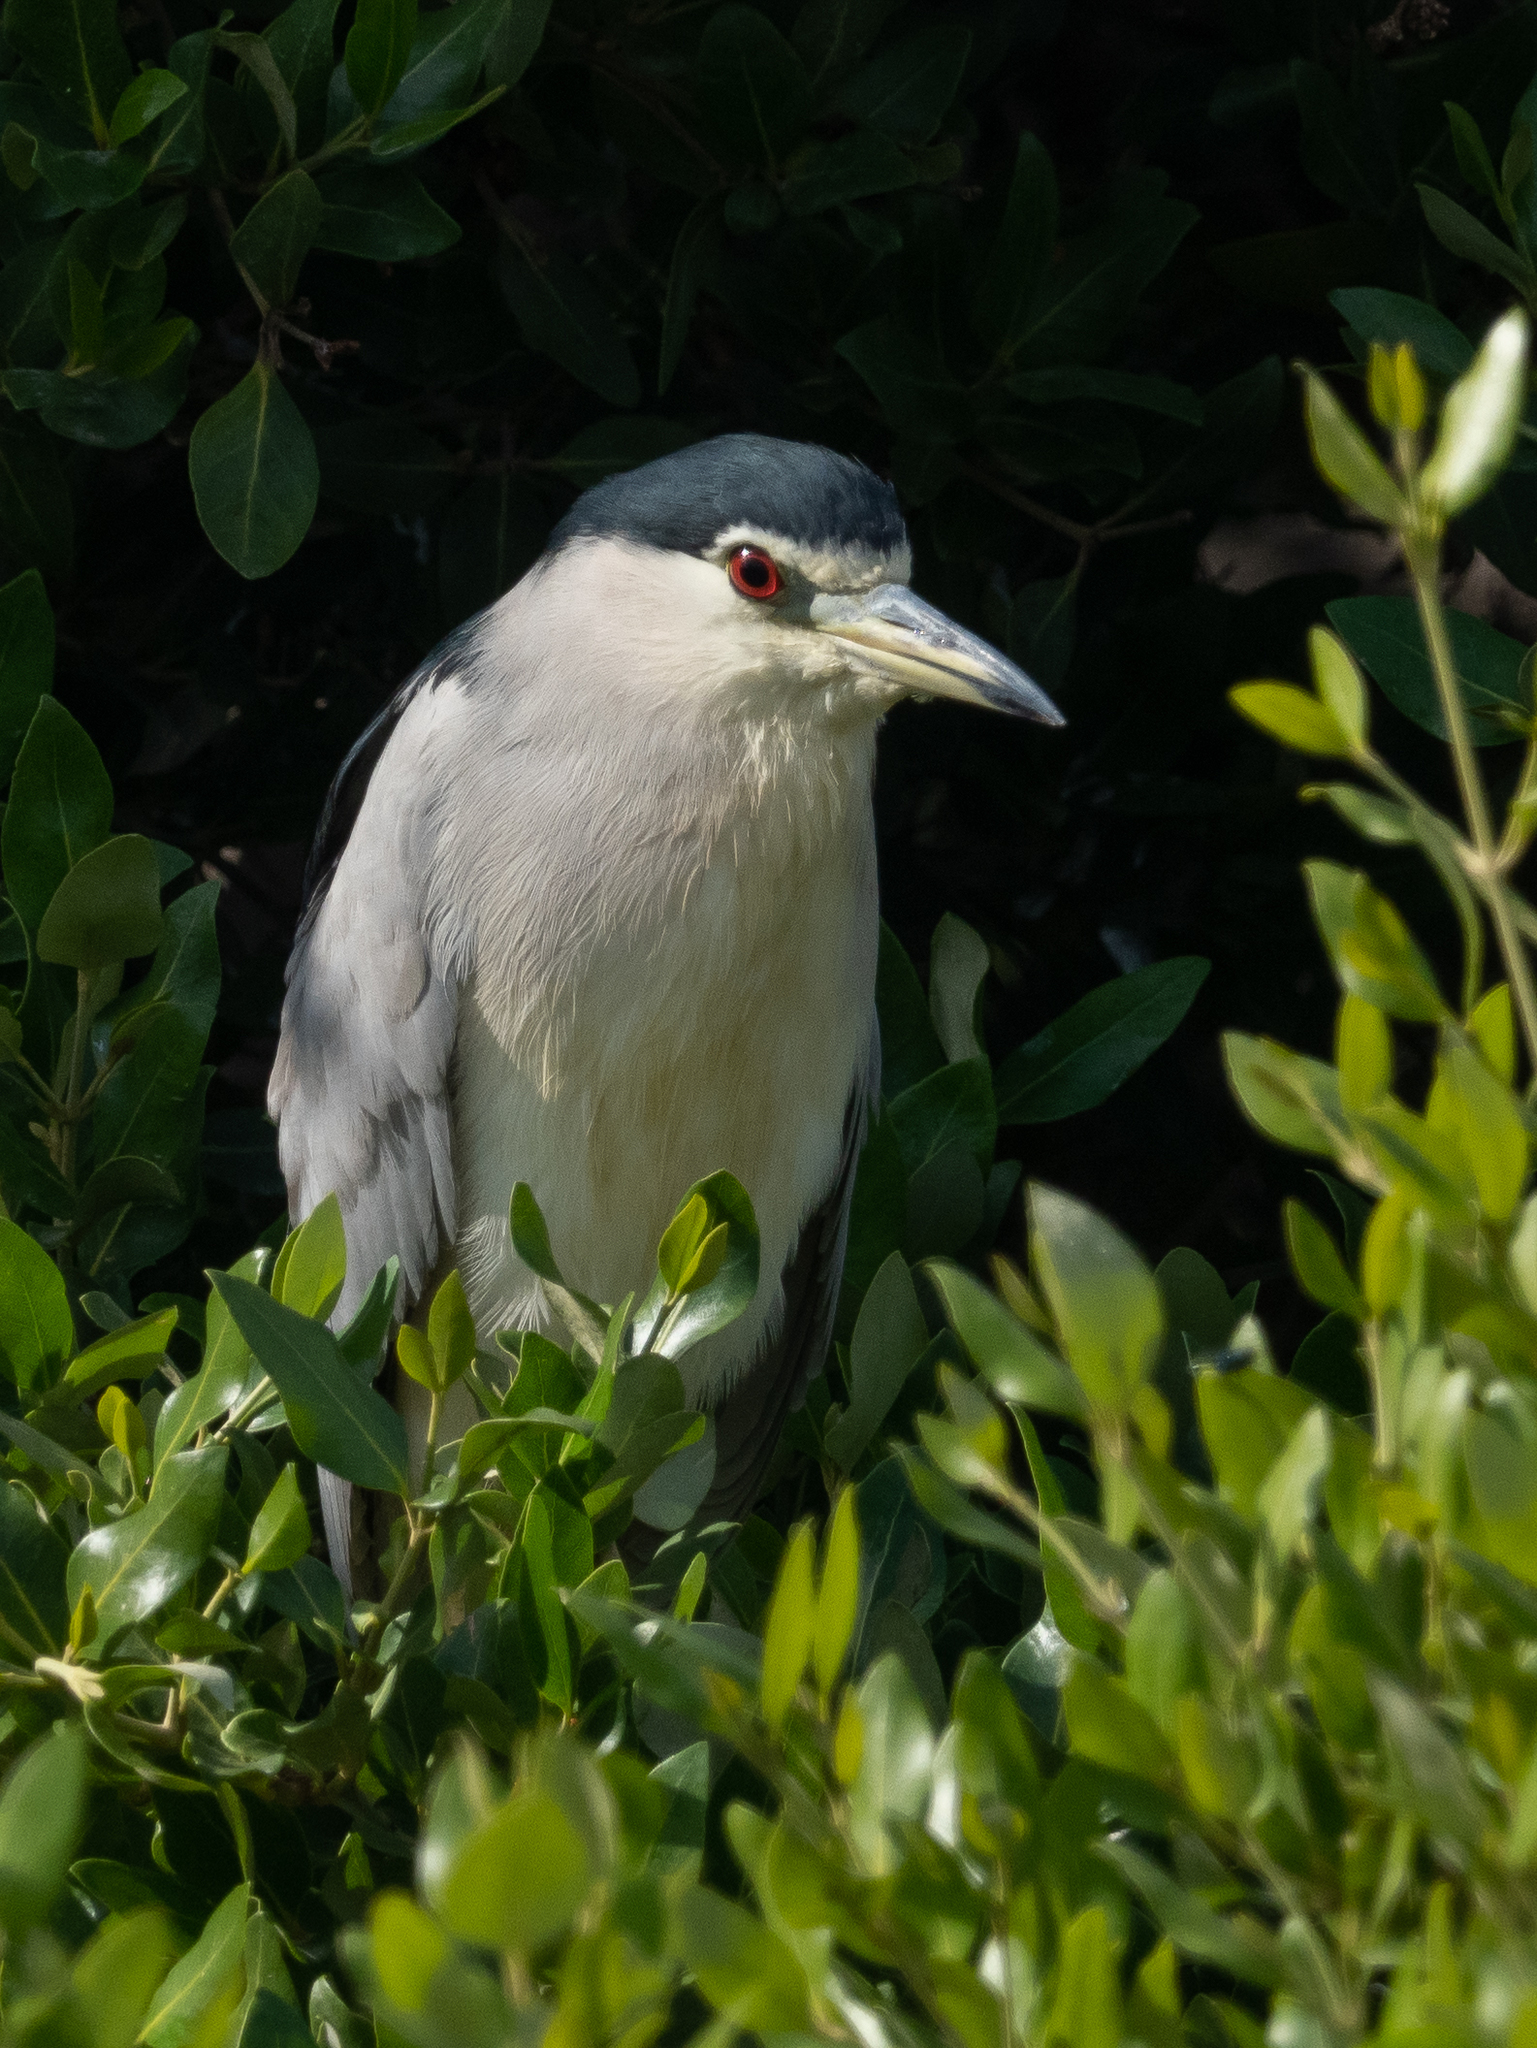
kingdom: Animalia
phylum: Chordata
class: Aves
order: Pelecaniformes
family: Ardeidae
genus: Nycticorax
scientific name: Nycticorax nycticorax
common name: Black-crowned night heron
